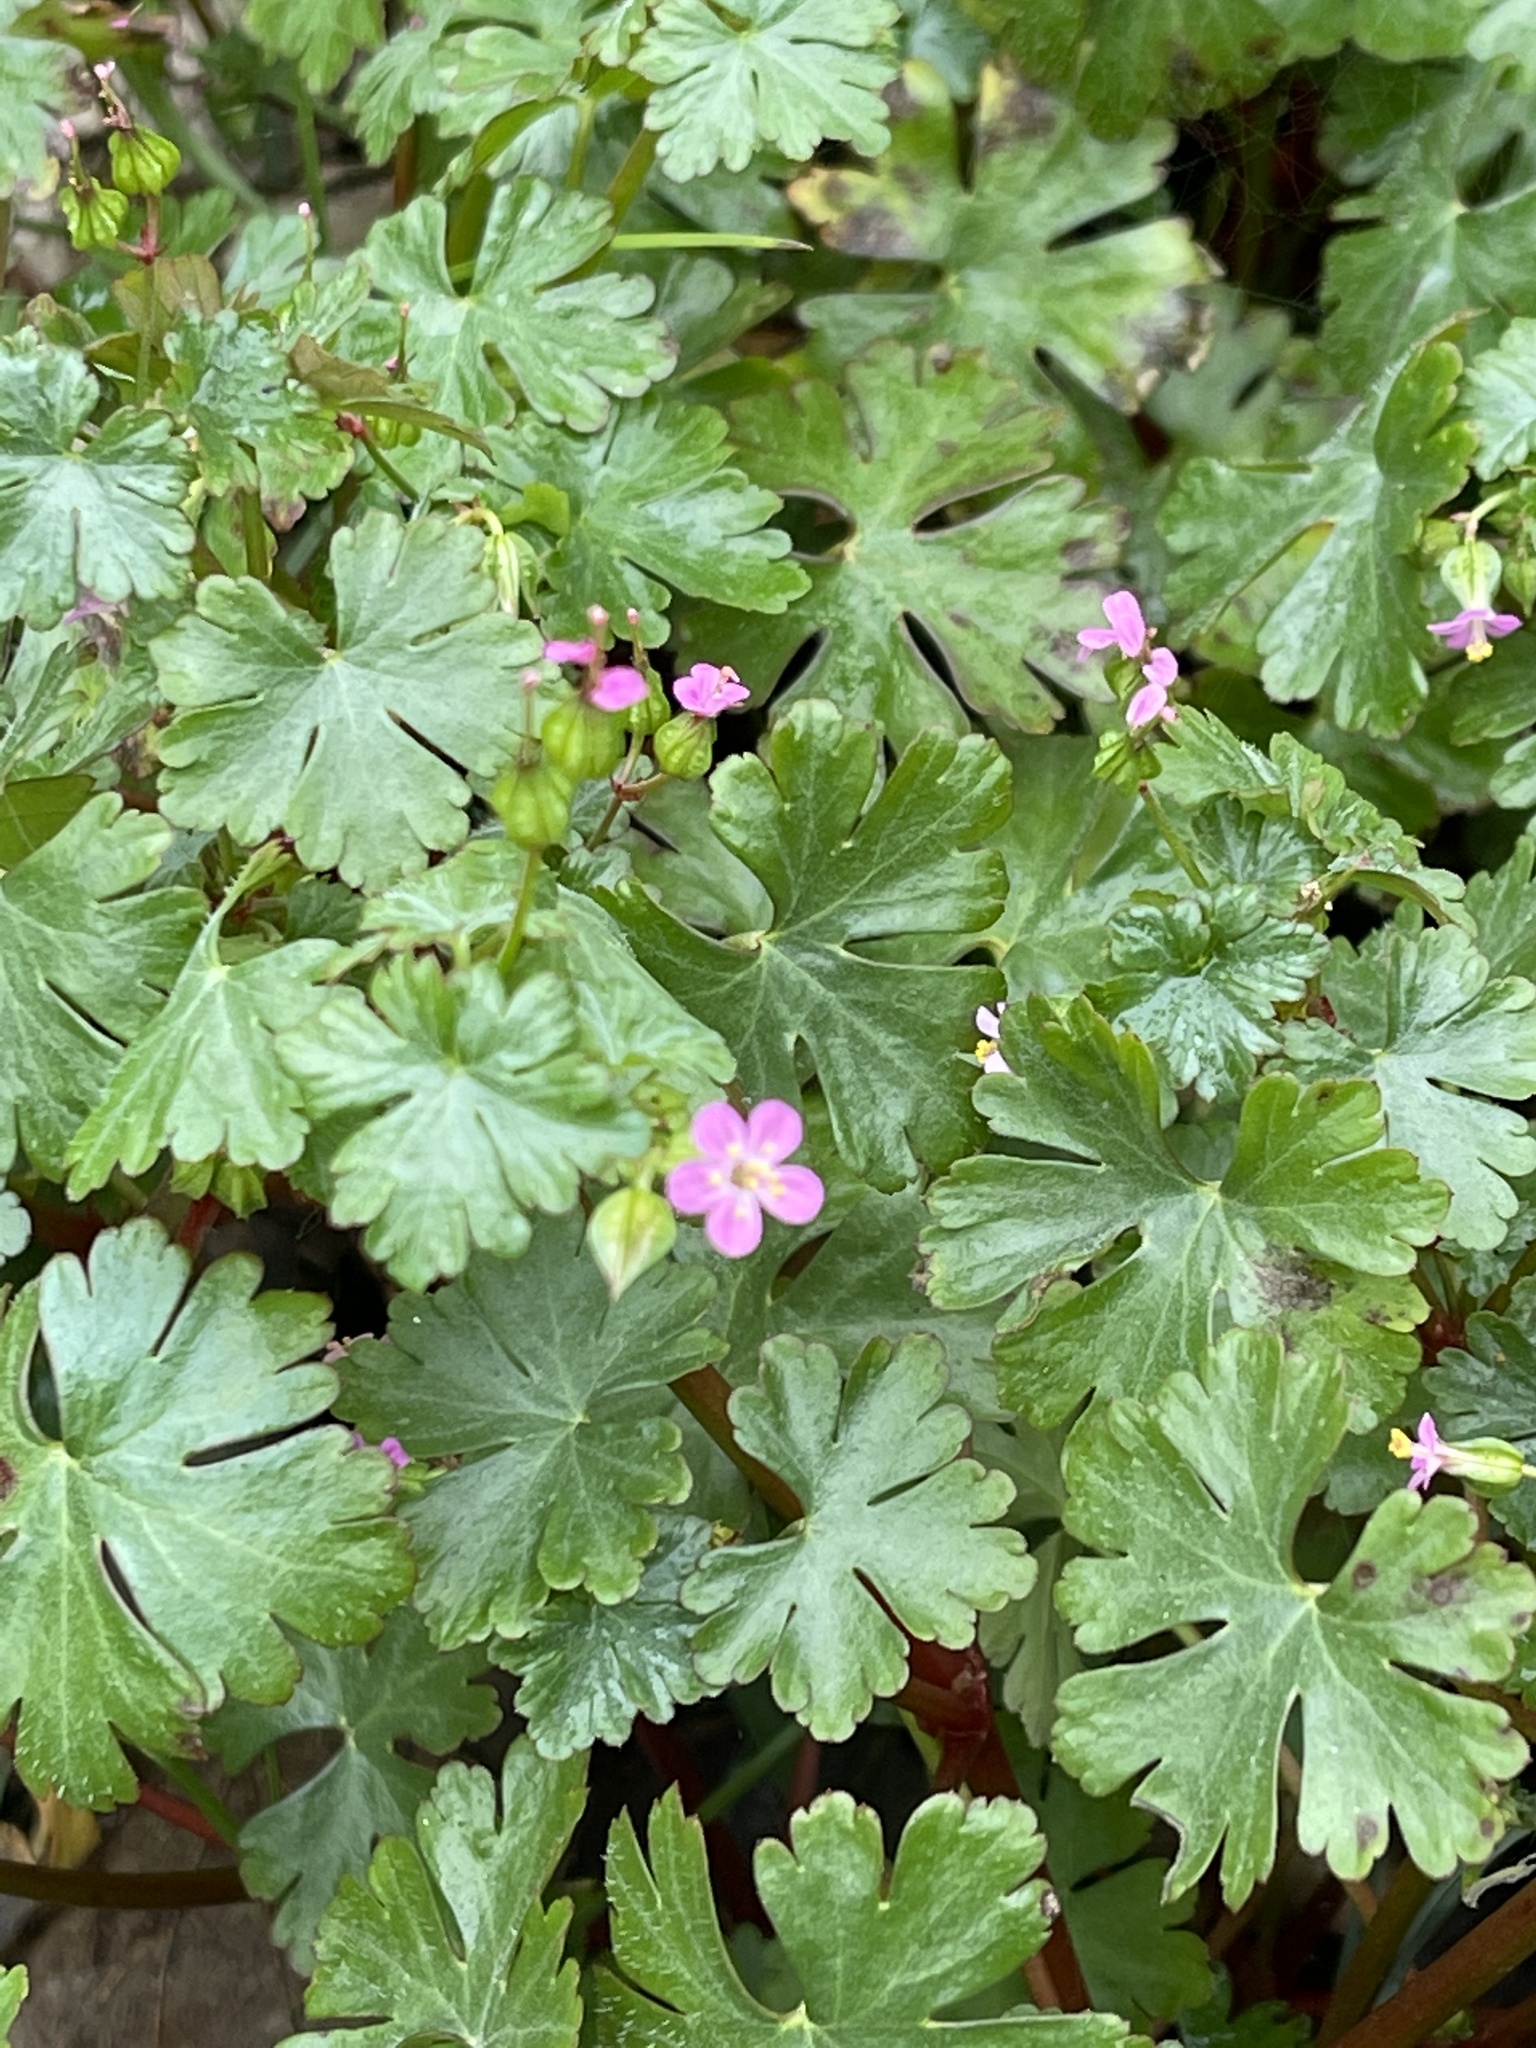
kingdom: Plantae
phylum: Tracheophyta
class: Magnoliopsida
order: Geraniales
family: Geraniaceae
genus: Geranium
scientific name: Geranium lucidum
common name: Shining crane's-bill
